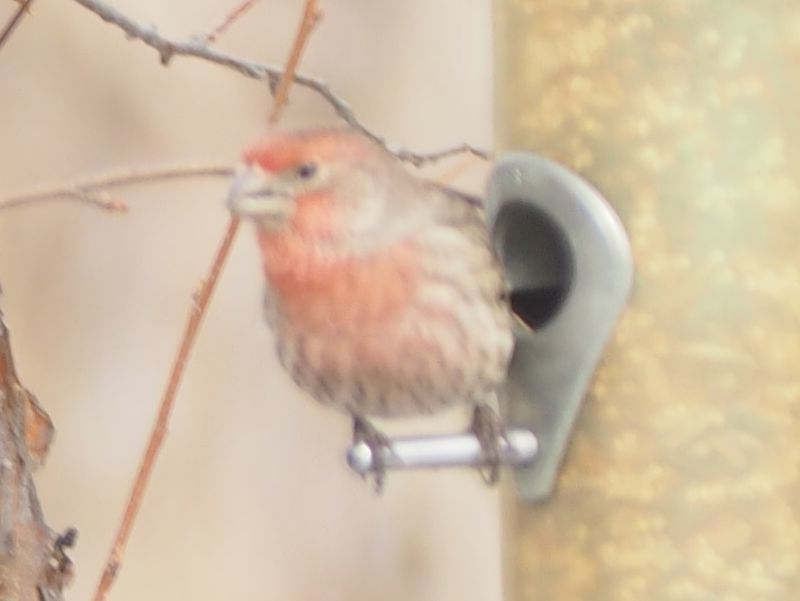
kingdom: Animalia
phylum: Chordata
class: Aves
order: Passeriformes
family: Fringillidae
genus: Haemorhous
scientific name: Haemorhous mexicanus
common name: House finch
